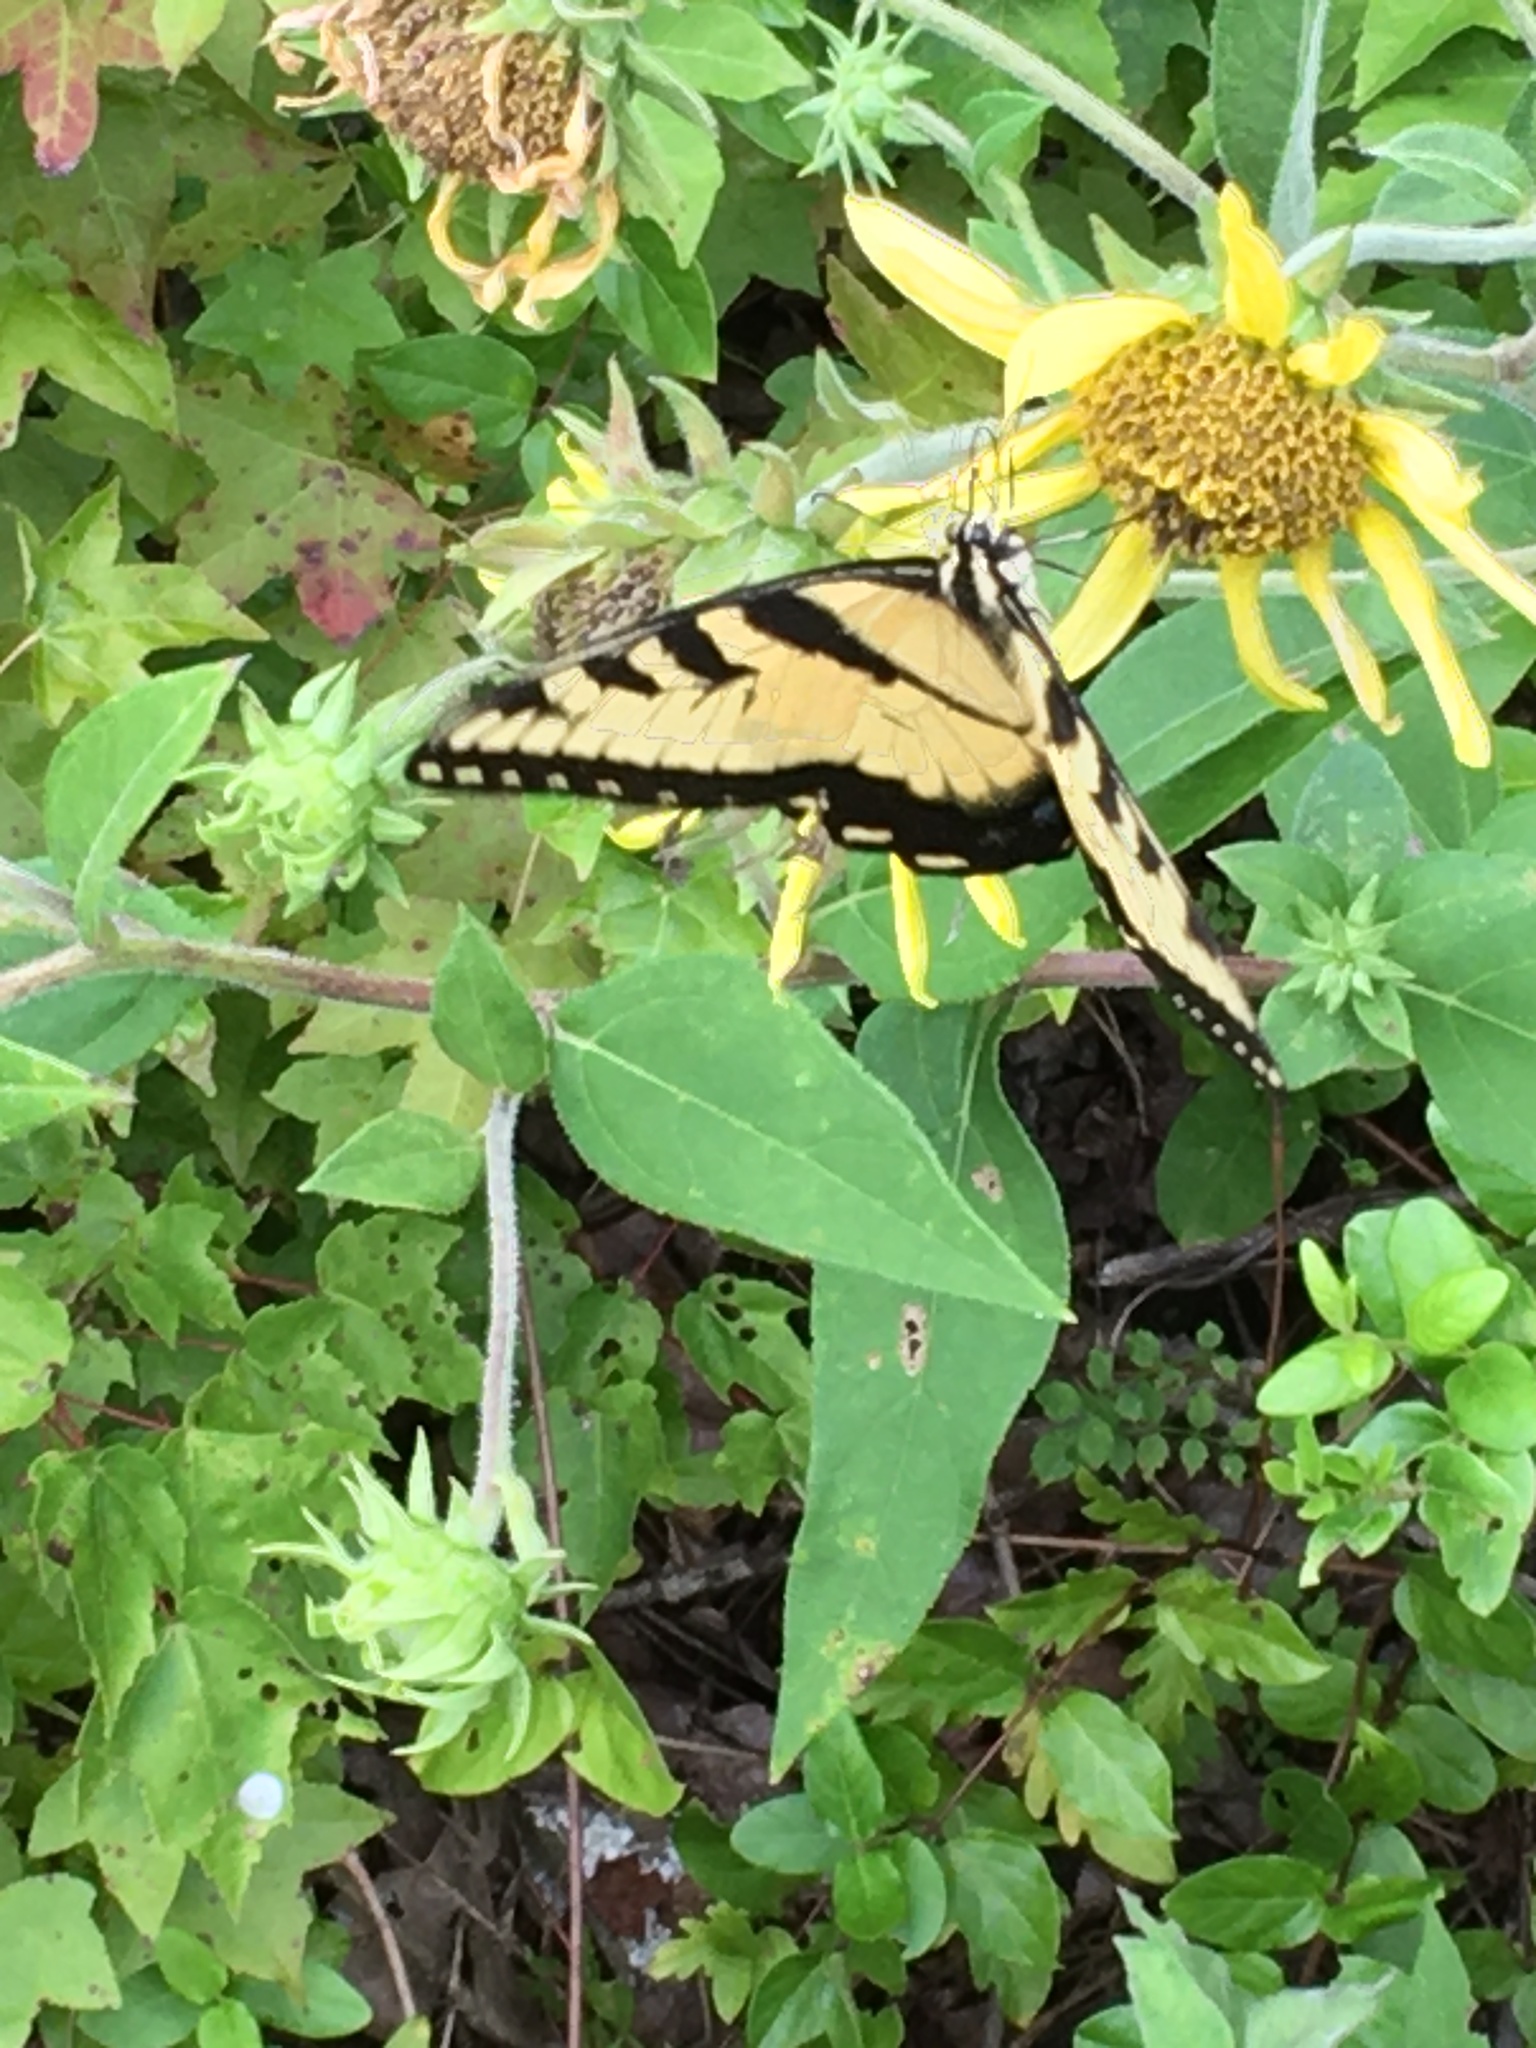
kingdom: Animalia
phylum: Arthropoda
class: Insecta
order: Lepidoptera
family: Papilionidae
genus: Papilio
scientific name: Papilio glaucus
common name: Tiger swallowtail
